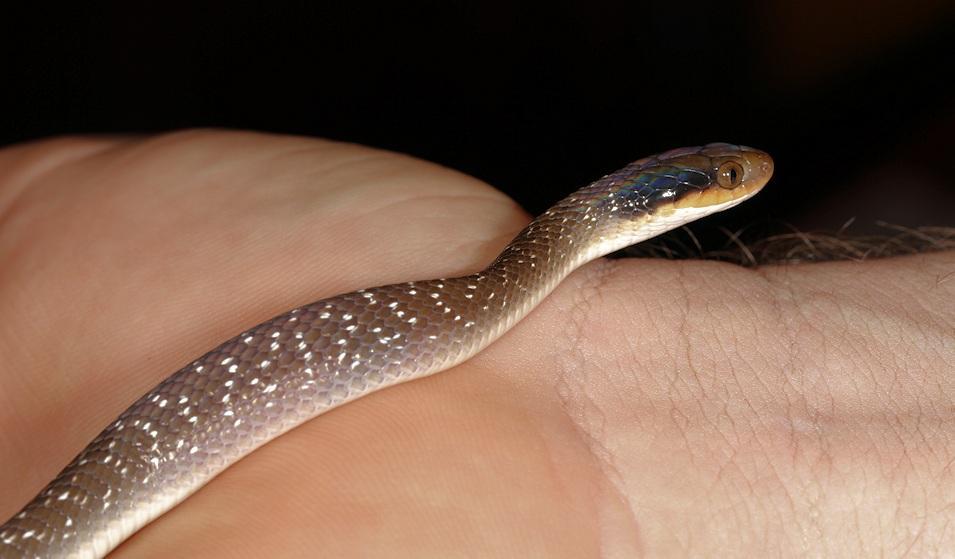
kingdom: Animalia
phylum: Chordata
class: Squamata
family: Colubridae
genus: Crotaphopeltis
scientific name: Crotaphopeltis hotamboeia
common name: Red-lipped snake
